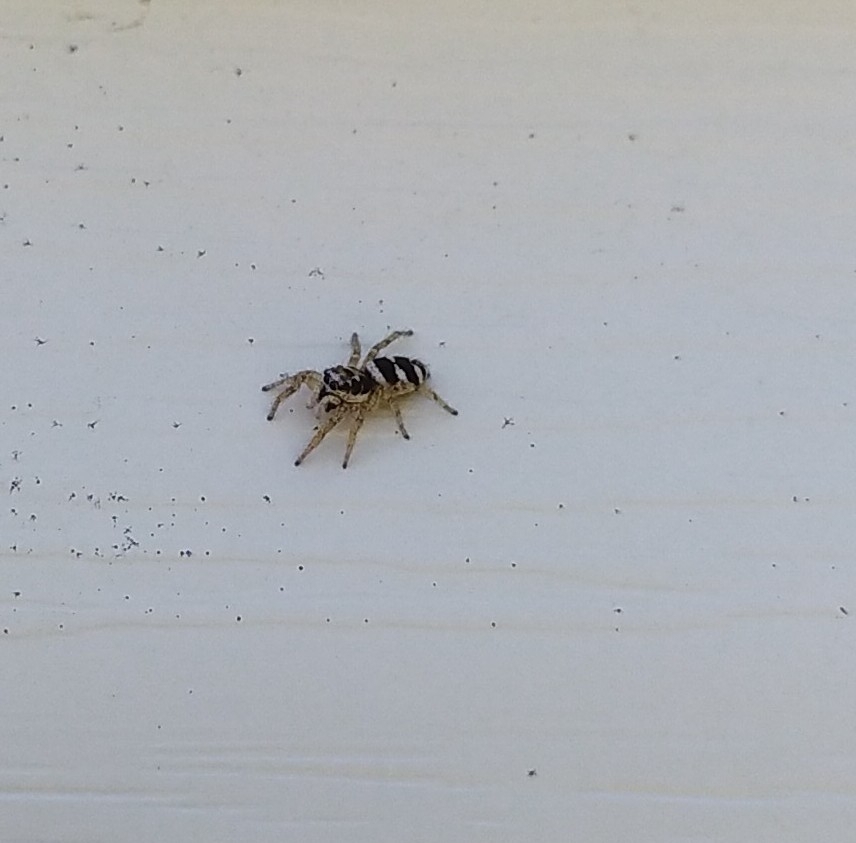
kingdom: Animalia
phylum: Arthropoda
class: Arachnida
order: Araneae
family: Salticidae
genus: Salticus
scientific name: Salticus scenicus
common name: Zebra jumper
